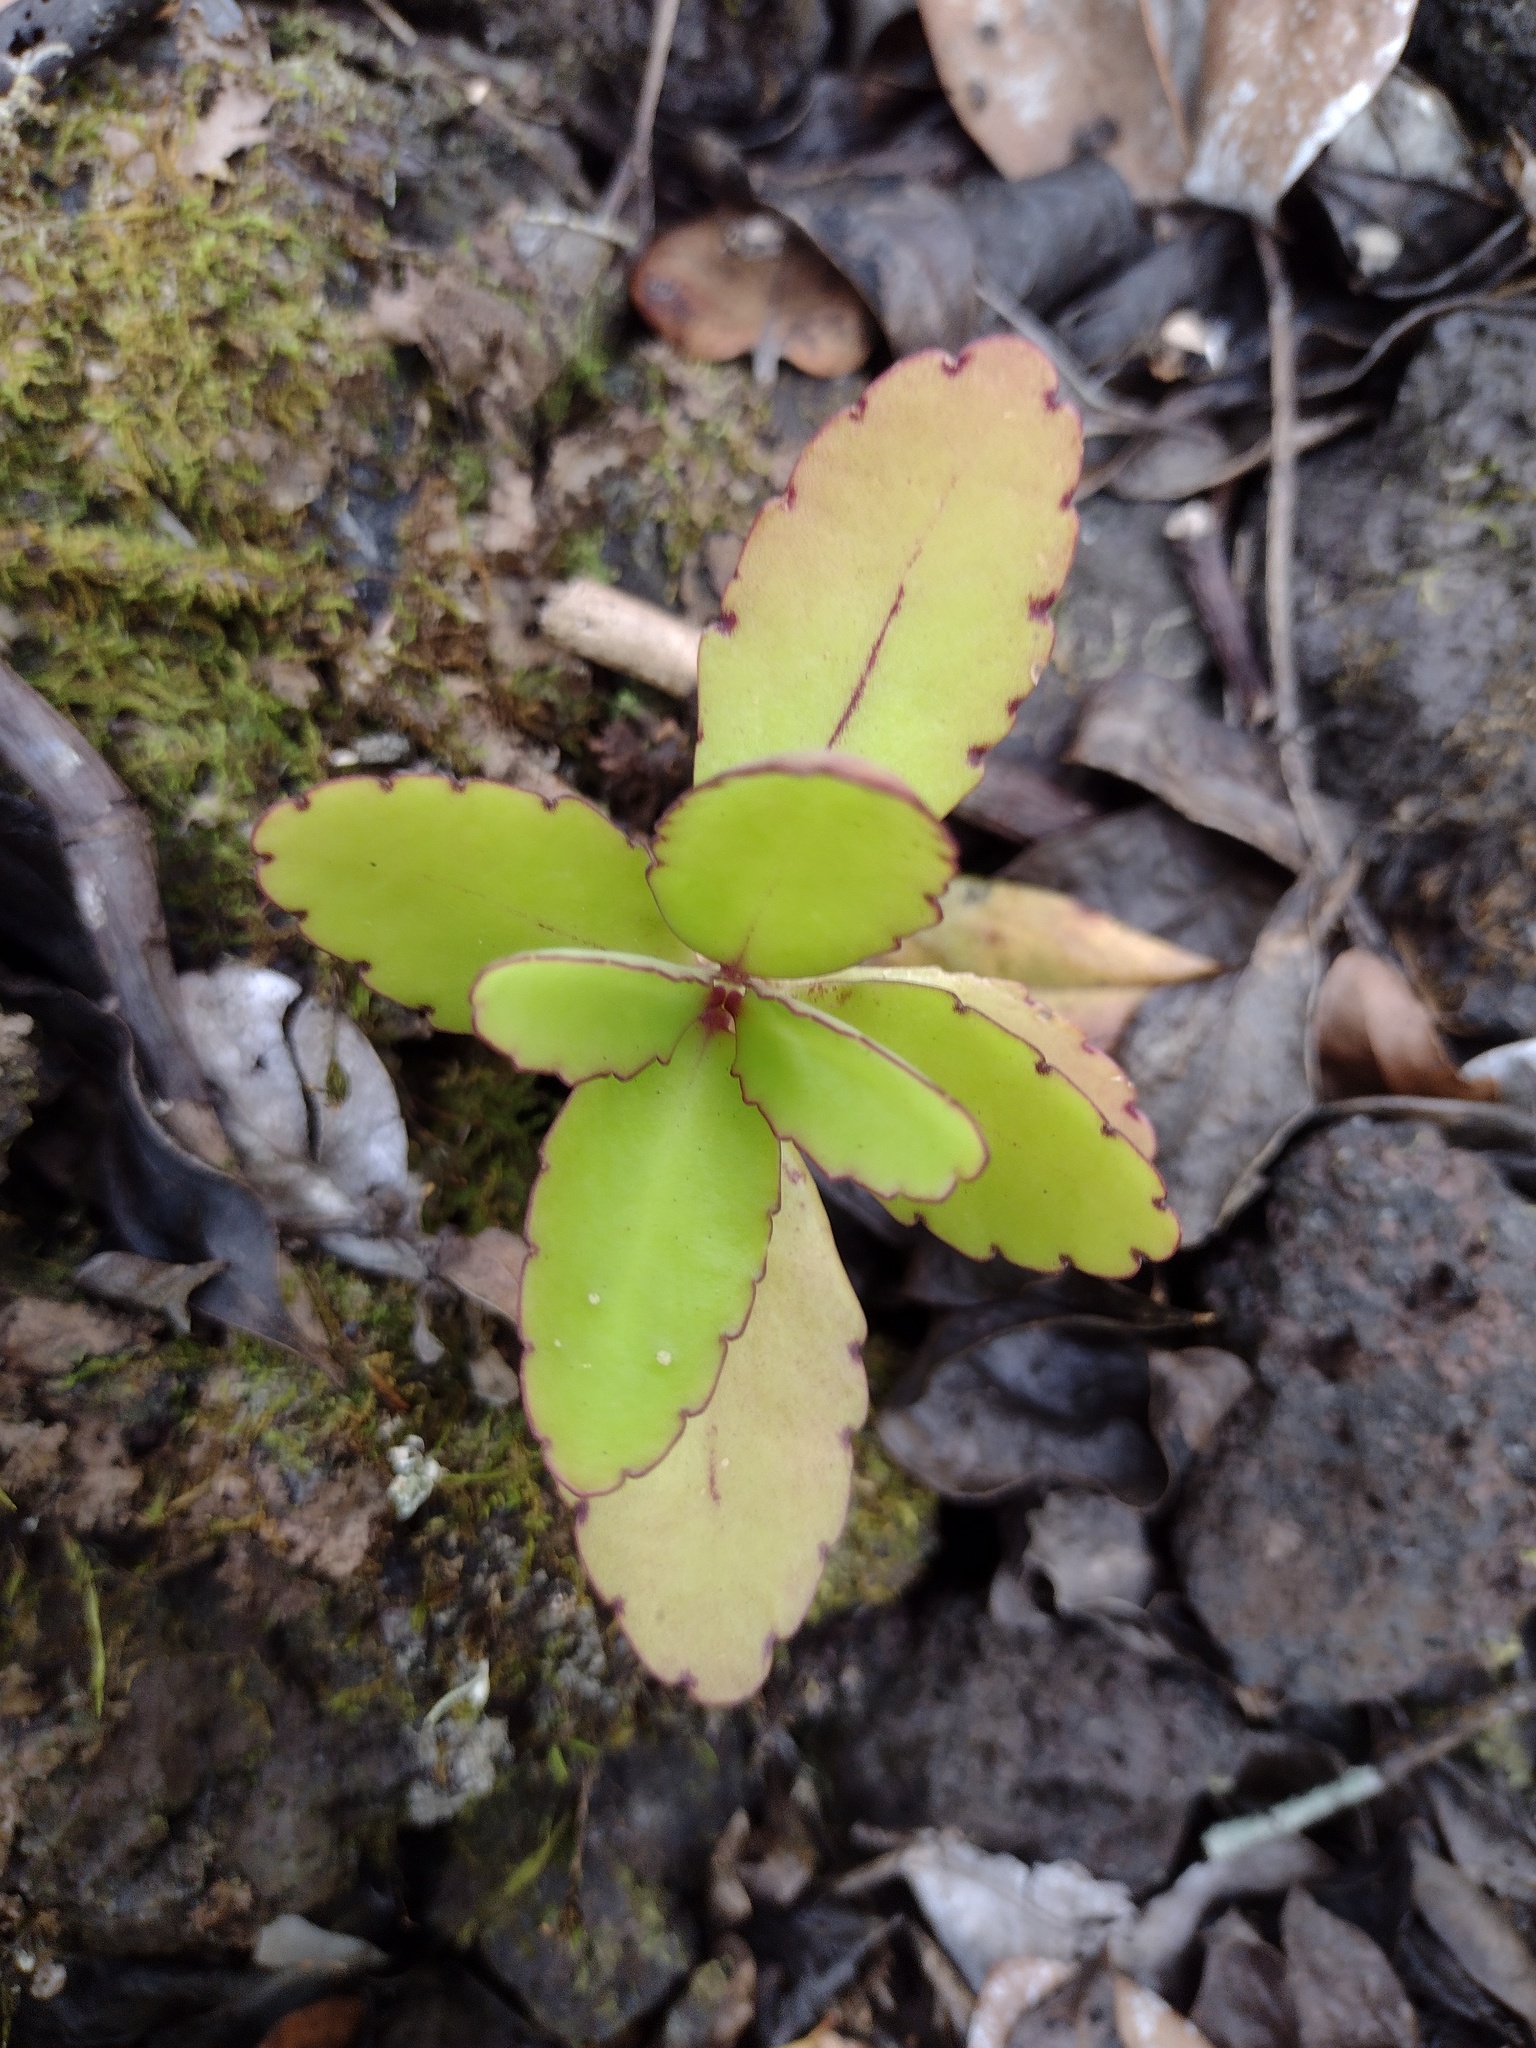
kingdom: Plantae
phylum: Tracheophyta
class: Magnoliopsida
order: Saxifragales
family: Crassulaceae
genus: Kalanchoe
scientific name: Kalanchoe pinnata
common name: Cathedral bells
